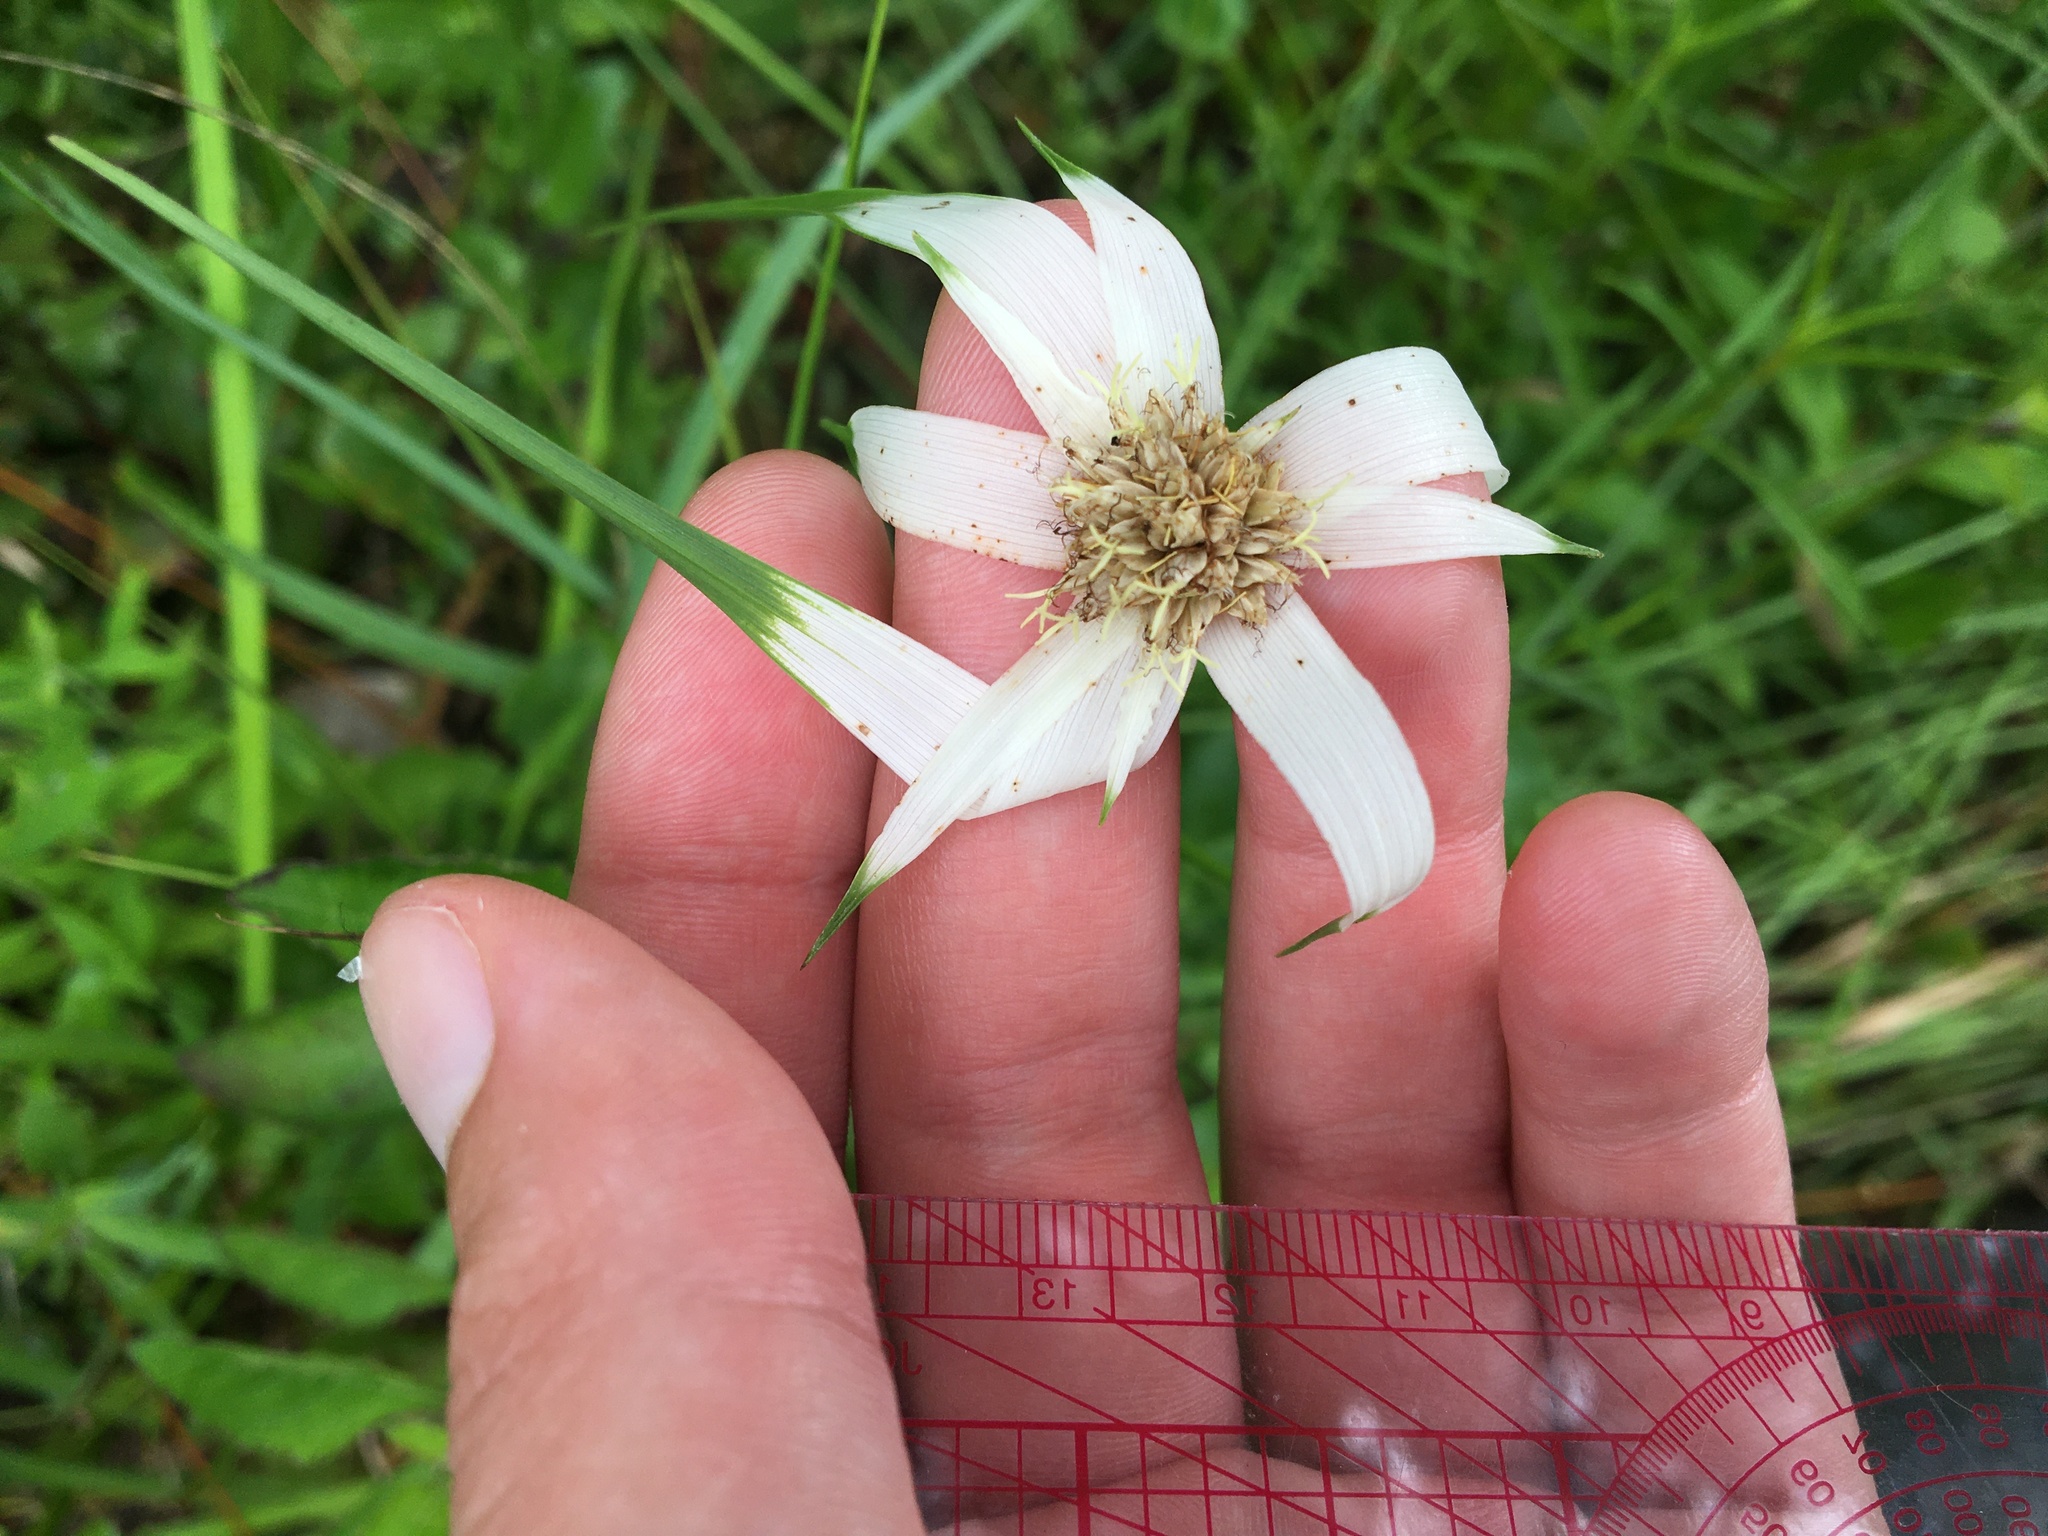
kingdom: Plantae
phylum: Tracheophyta
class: Liliopsida
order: Poales
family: Cyperaceae
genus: Rhynchospora
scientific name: Rhynchospora latifolia
